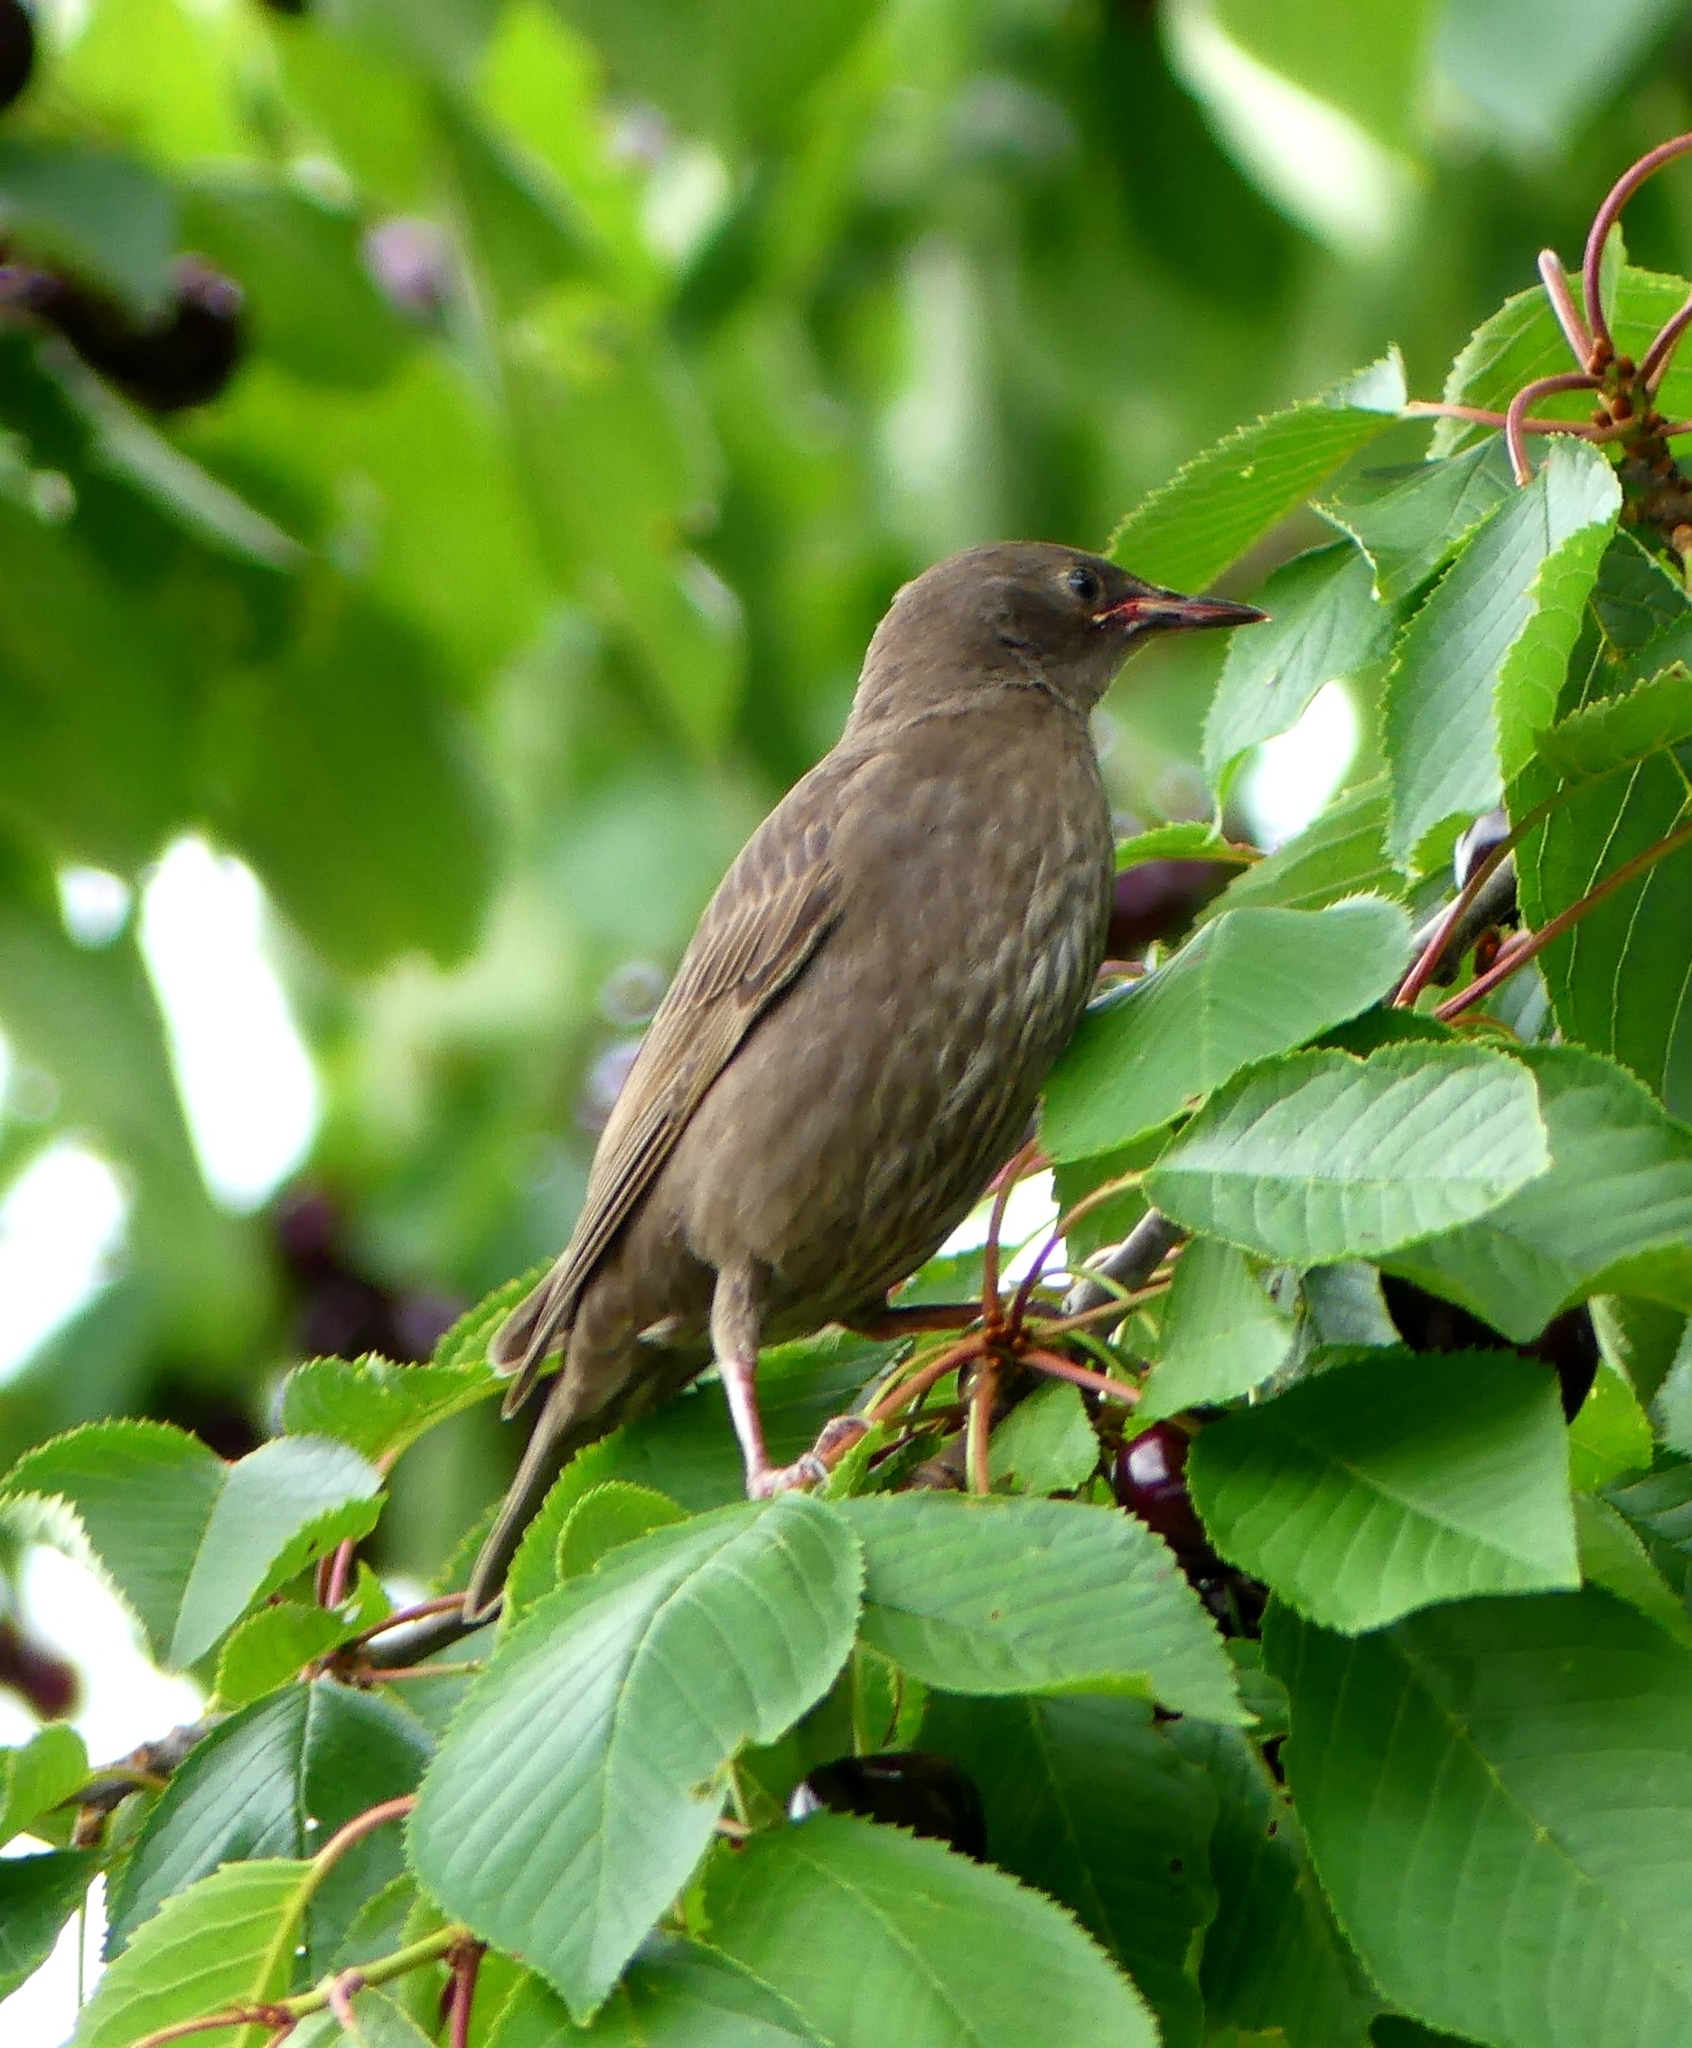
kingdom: Animalia
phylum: Chordata
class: Aves
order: Passeriformes
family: Sturnidae
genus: Sturnus
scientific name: Sturnus vulgaris
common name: Common starling
